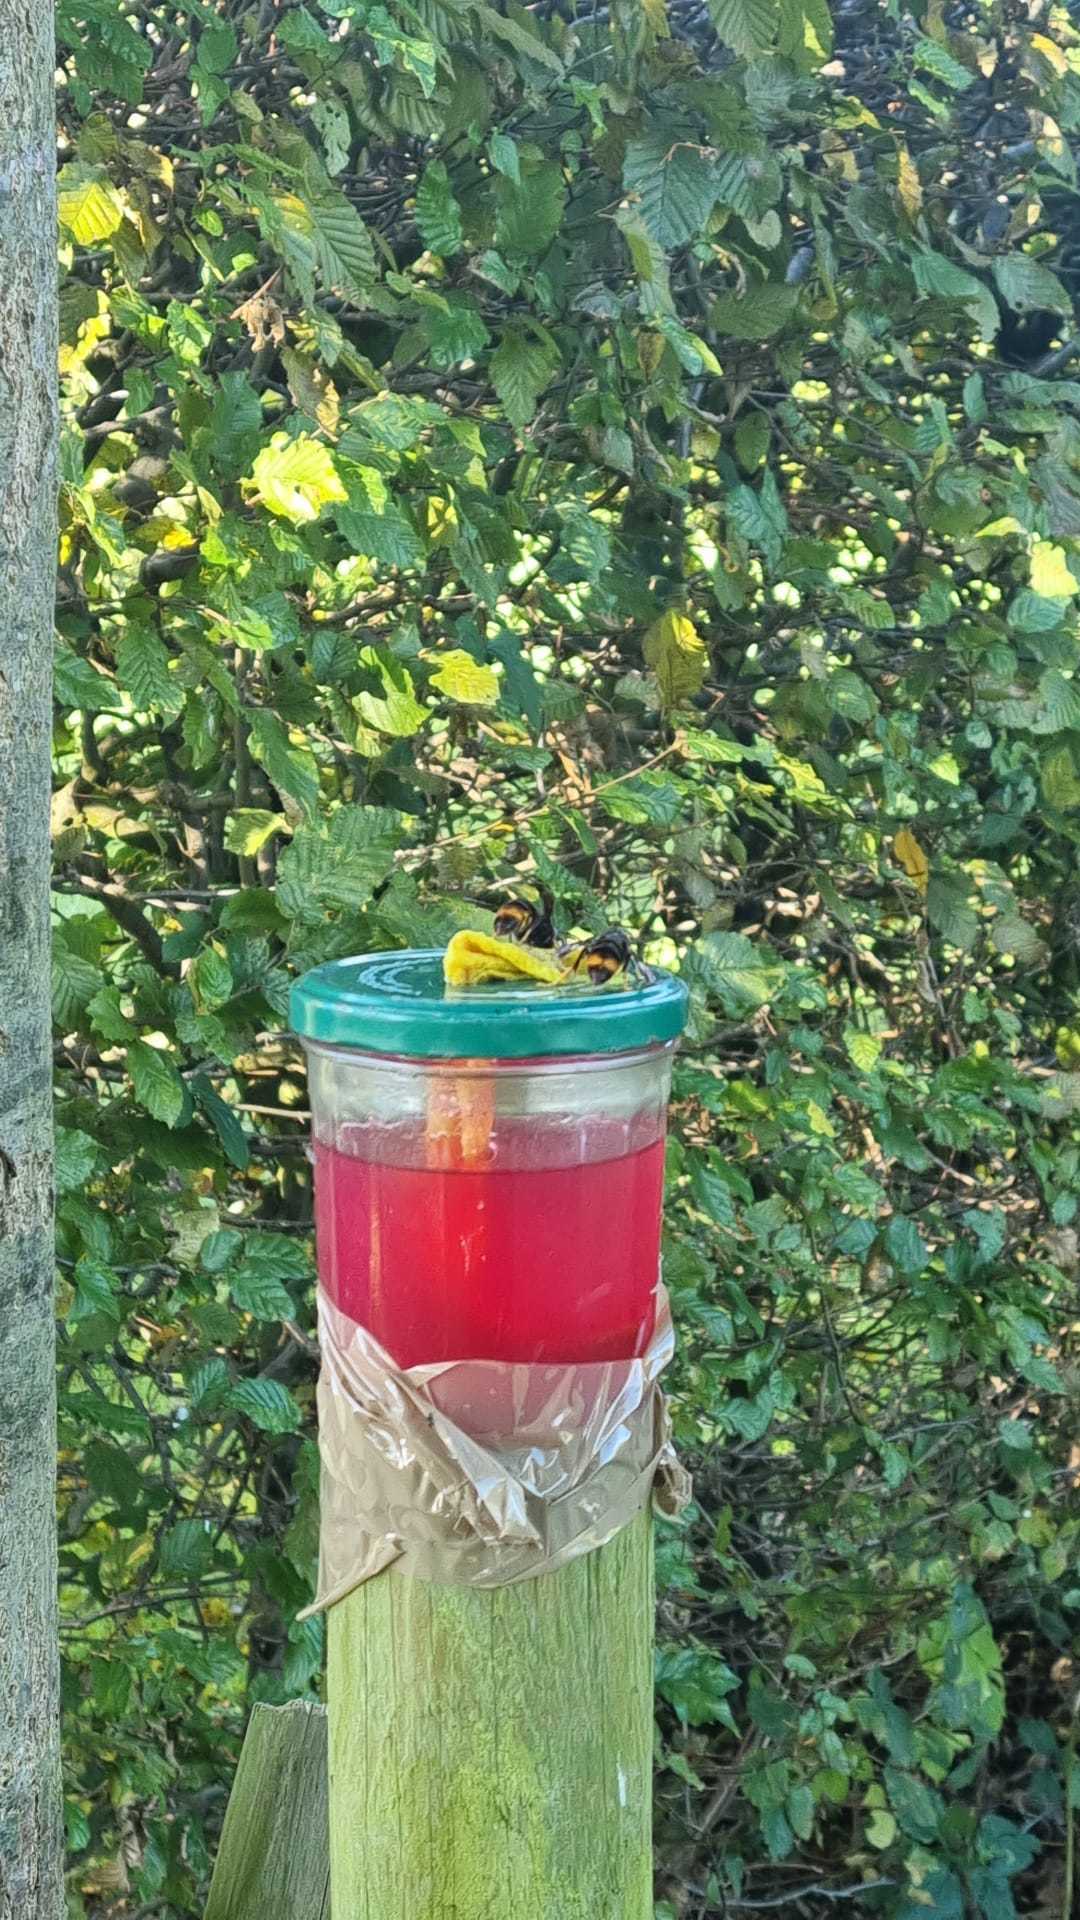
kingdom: Animalia
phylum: Arthropoda
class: Insecta
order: Hymenoptera
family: Vespidae
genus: Vespa
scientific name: Vespa velutina
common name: Asian hornet
